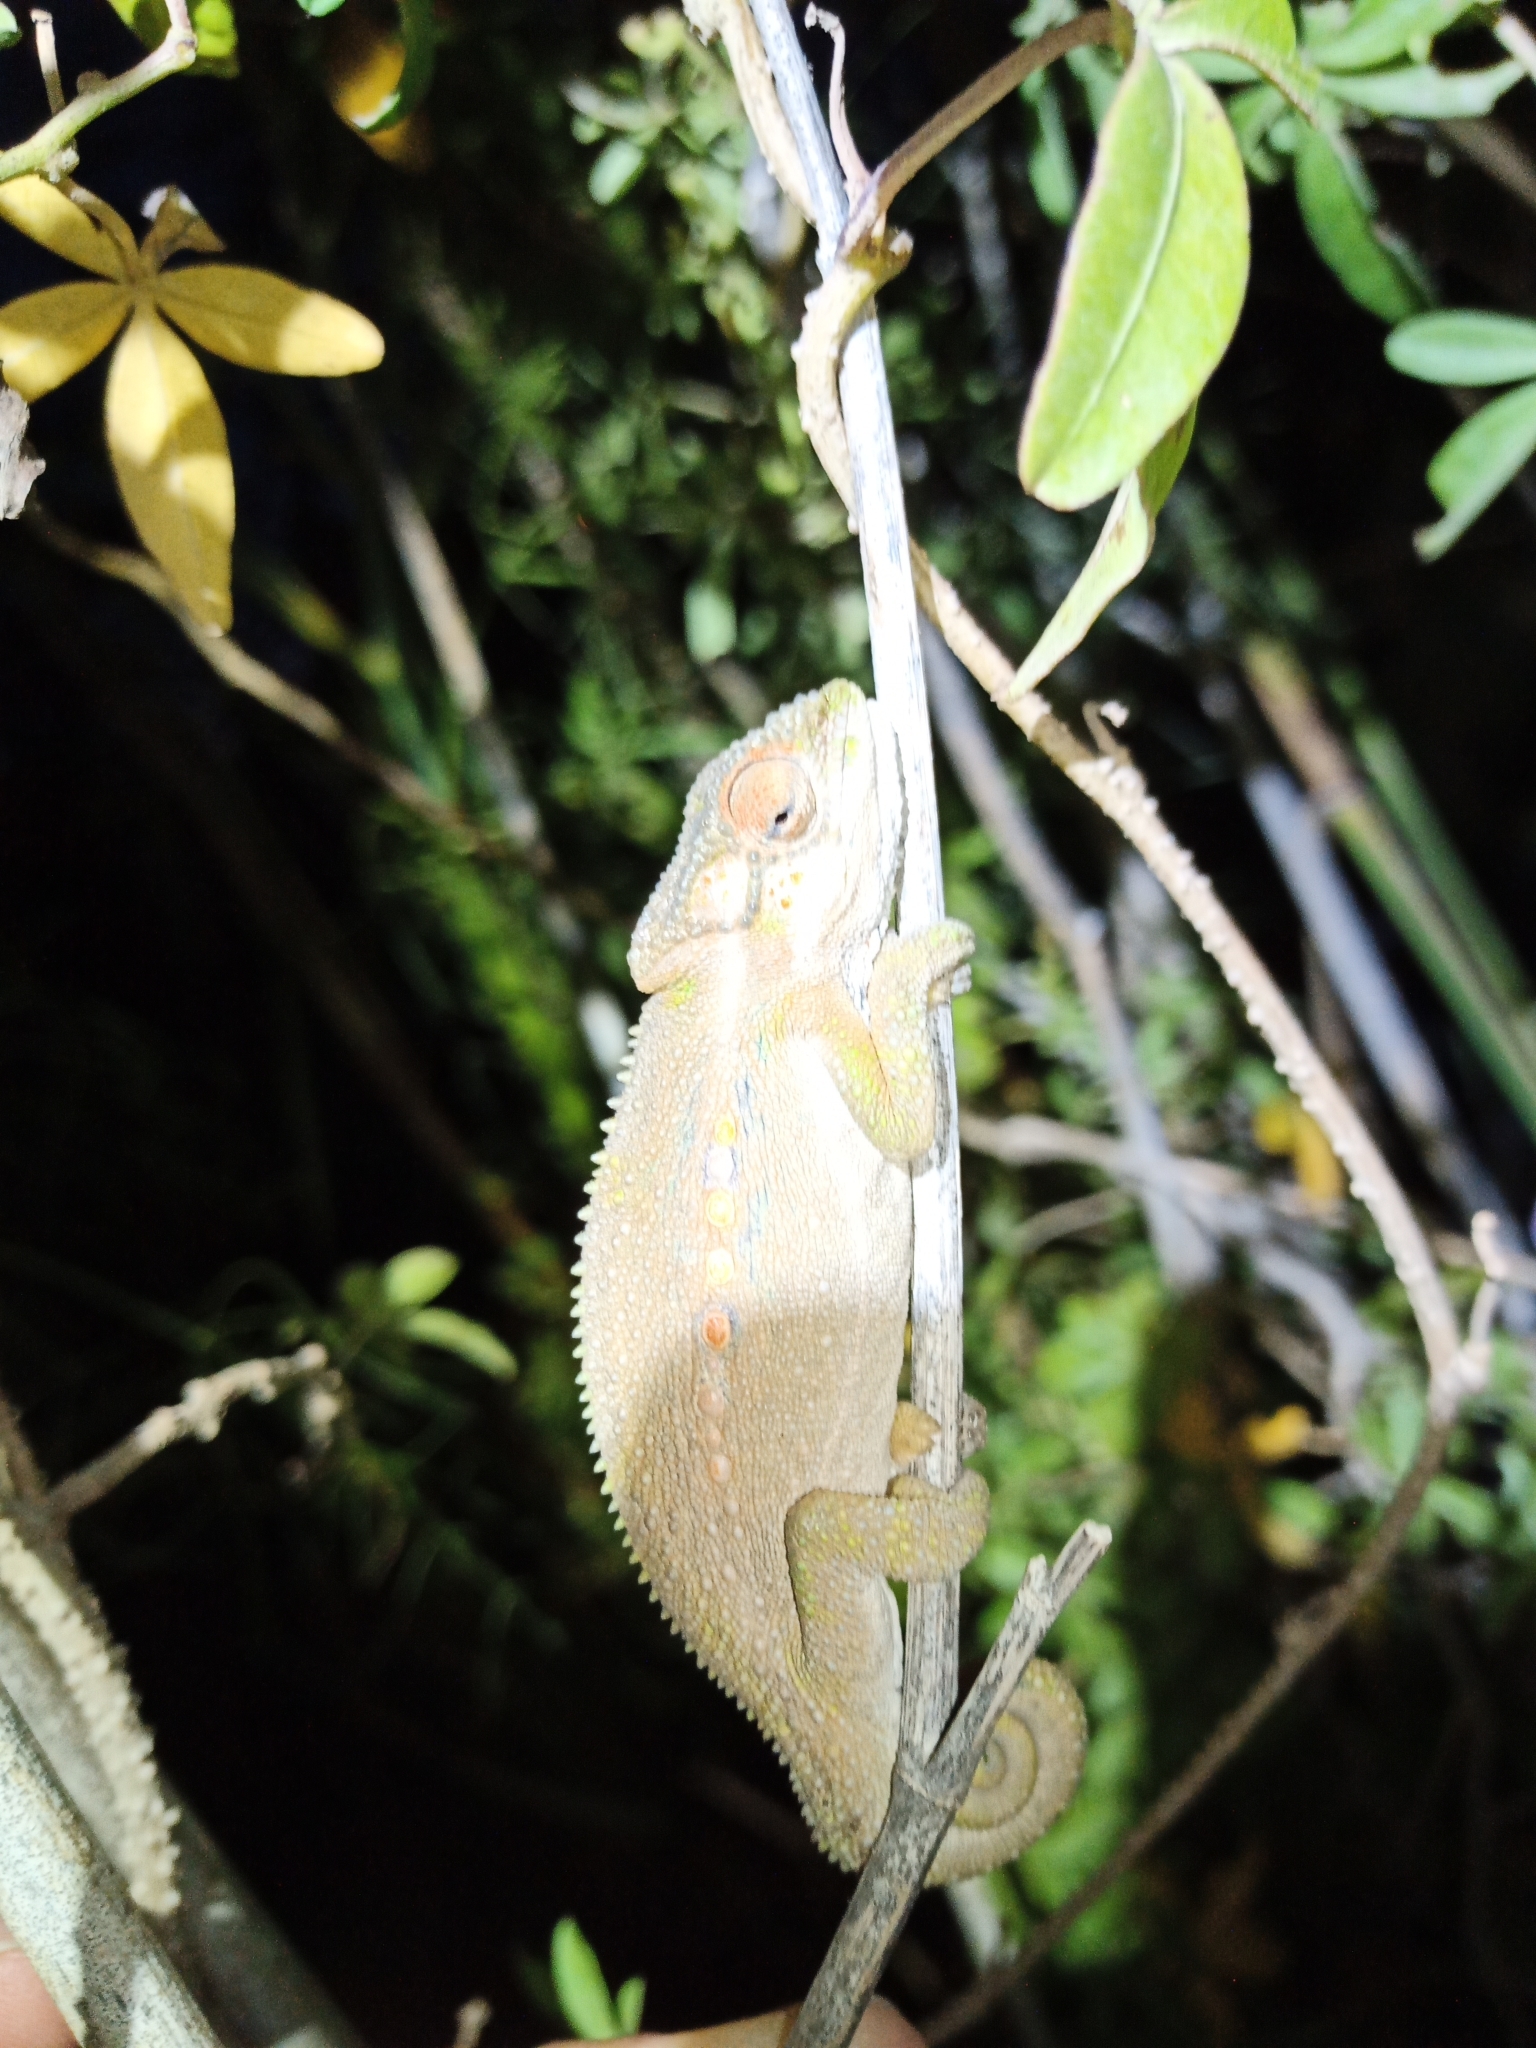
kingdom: Animalia
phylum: Chordata
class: Squamata
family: Chamaeleonidae
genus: Bradypodion
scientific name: Bradypodion pumilum
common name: Cape dwarf chameleon
